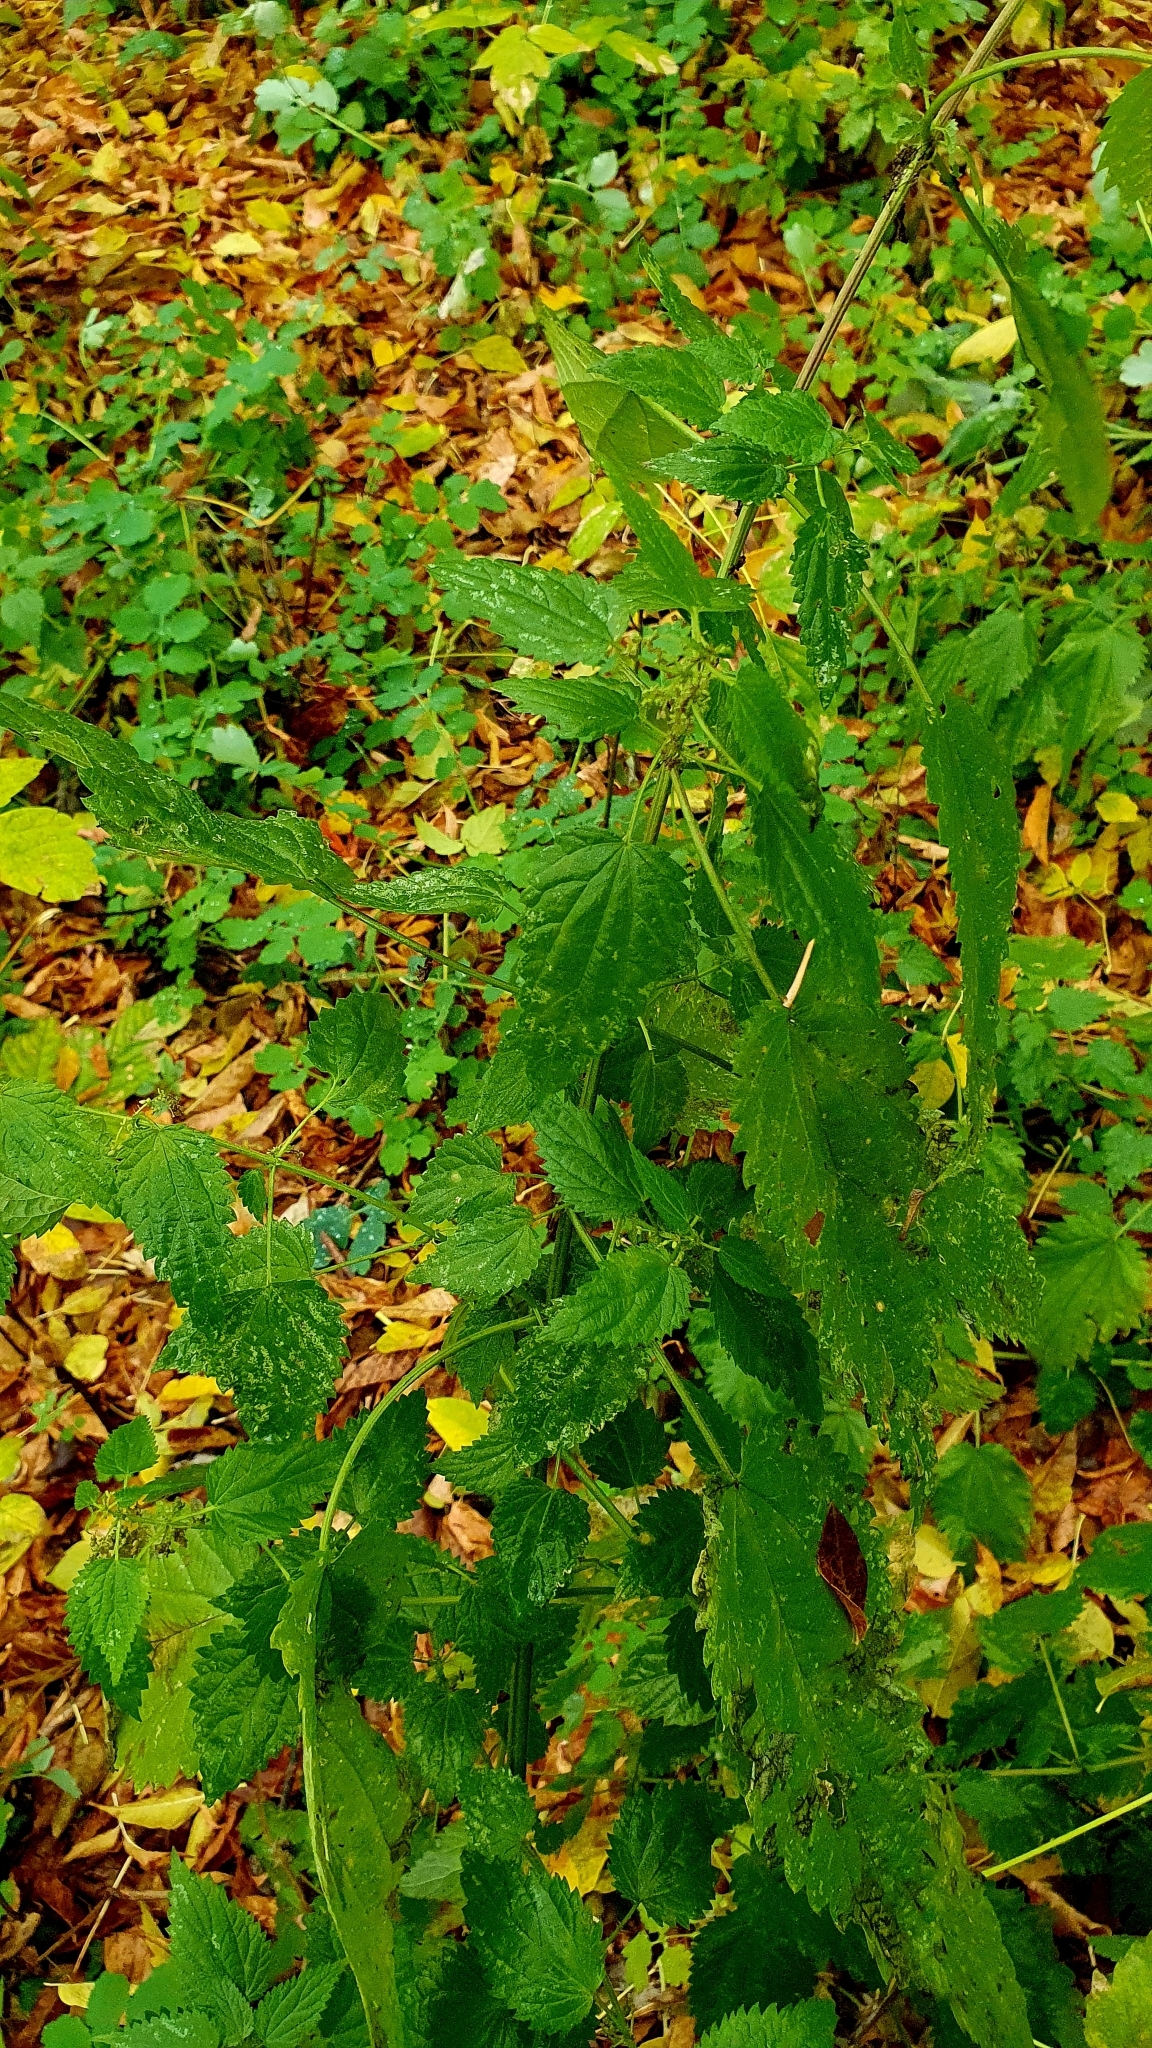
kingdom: Plantae
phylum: Tracheophyta
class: Magnoliopsida
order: Rosales
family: Urticaceae
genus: Urtica
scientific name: Urtica dioica
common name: Common nettle
